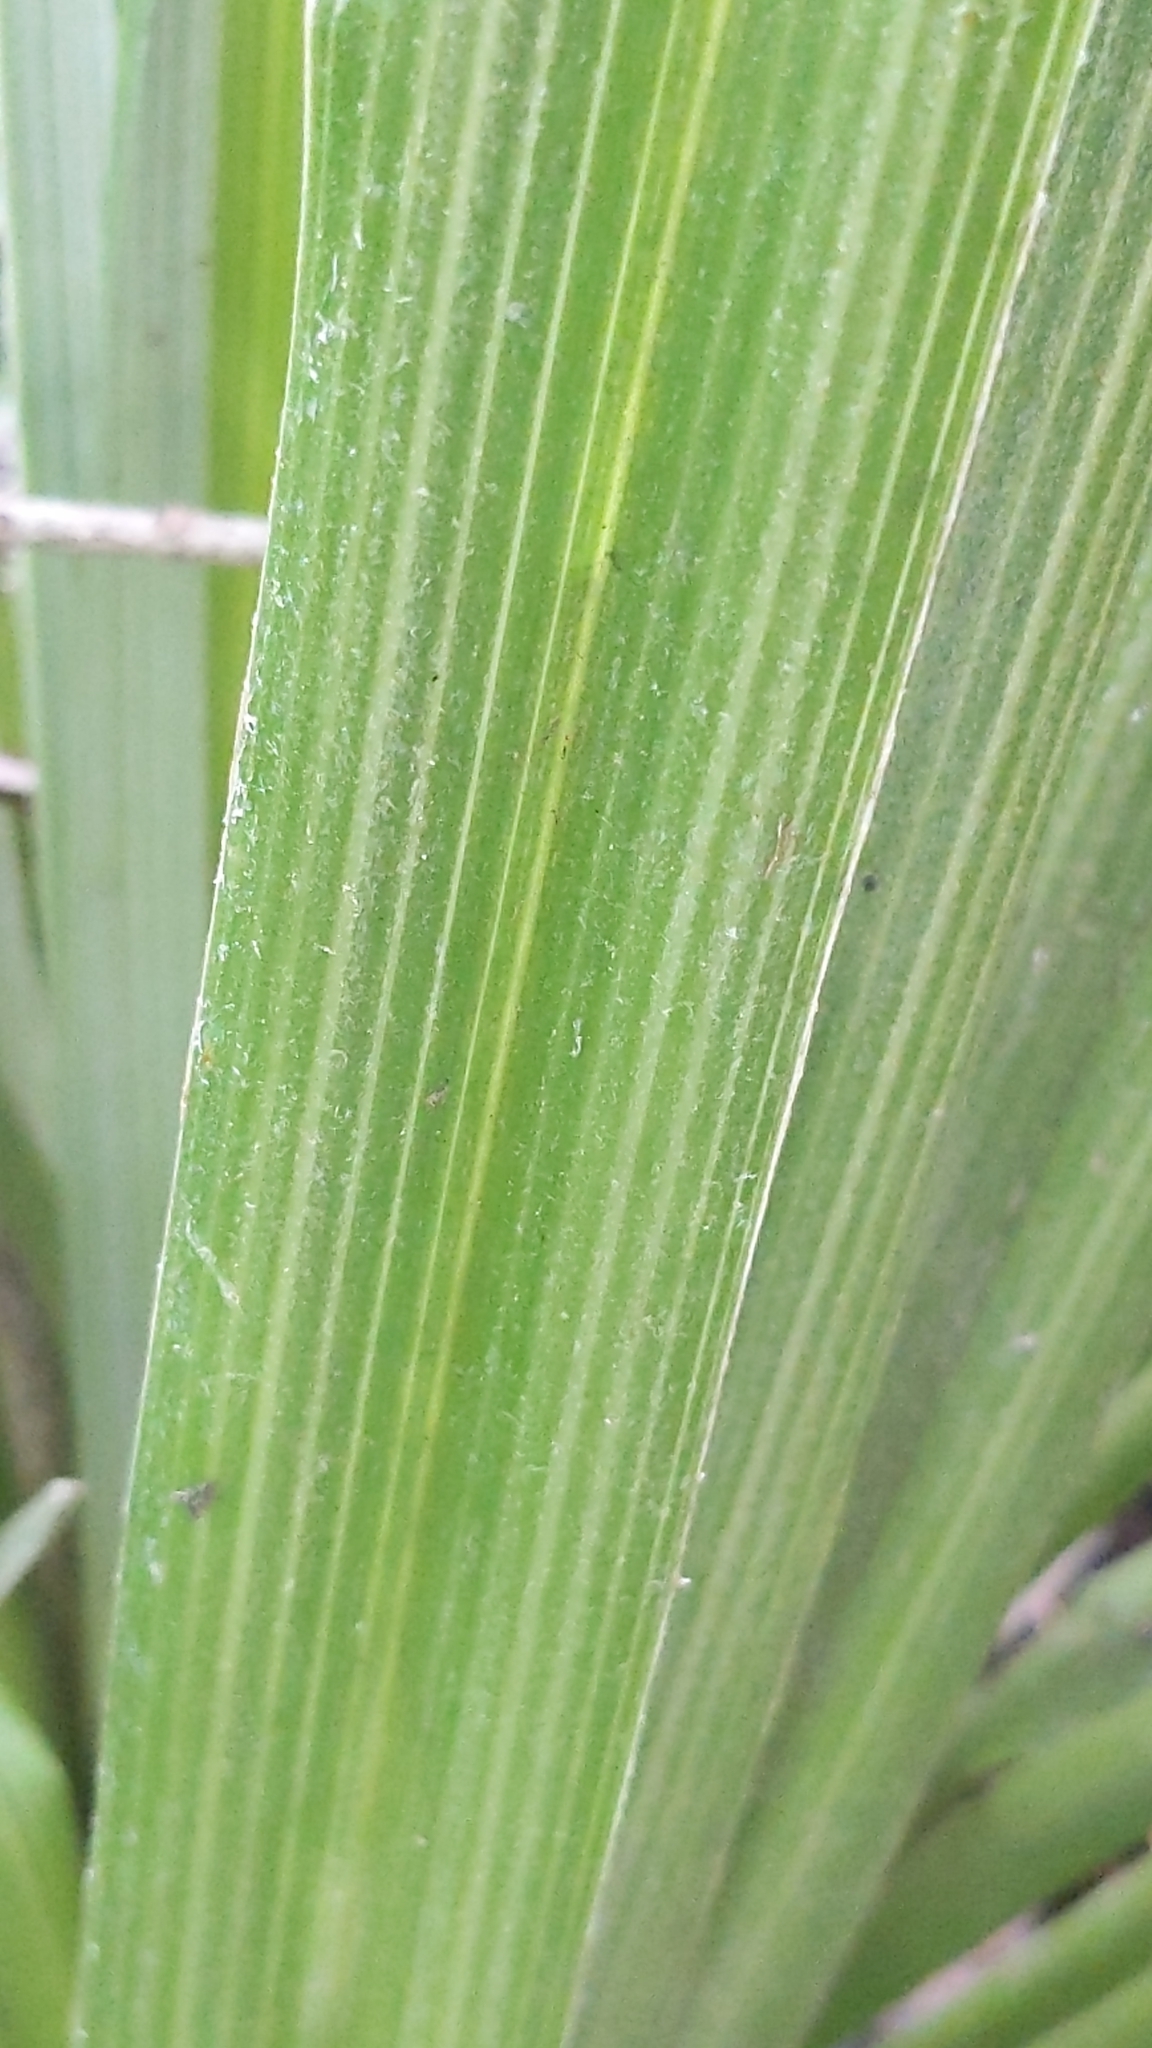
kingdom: Plantae
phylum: Tracheophyta
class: Liliopsida
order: Asparagales
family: Asteliaceae
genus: Astelia
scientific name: Astelia solandri
